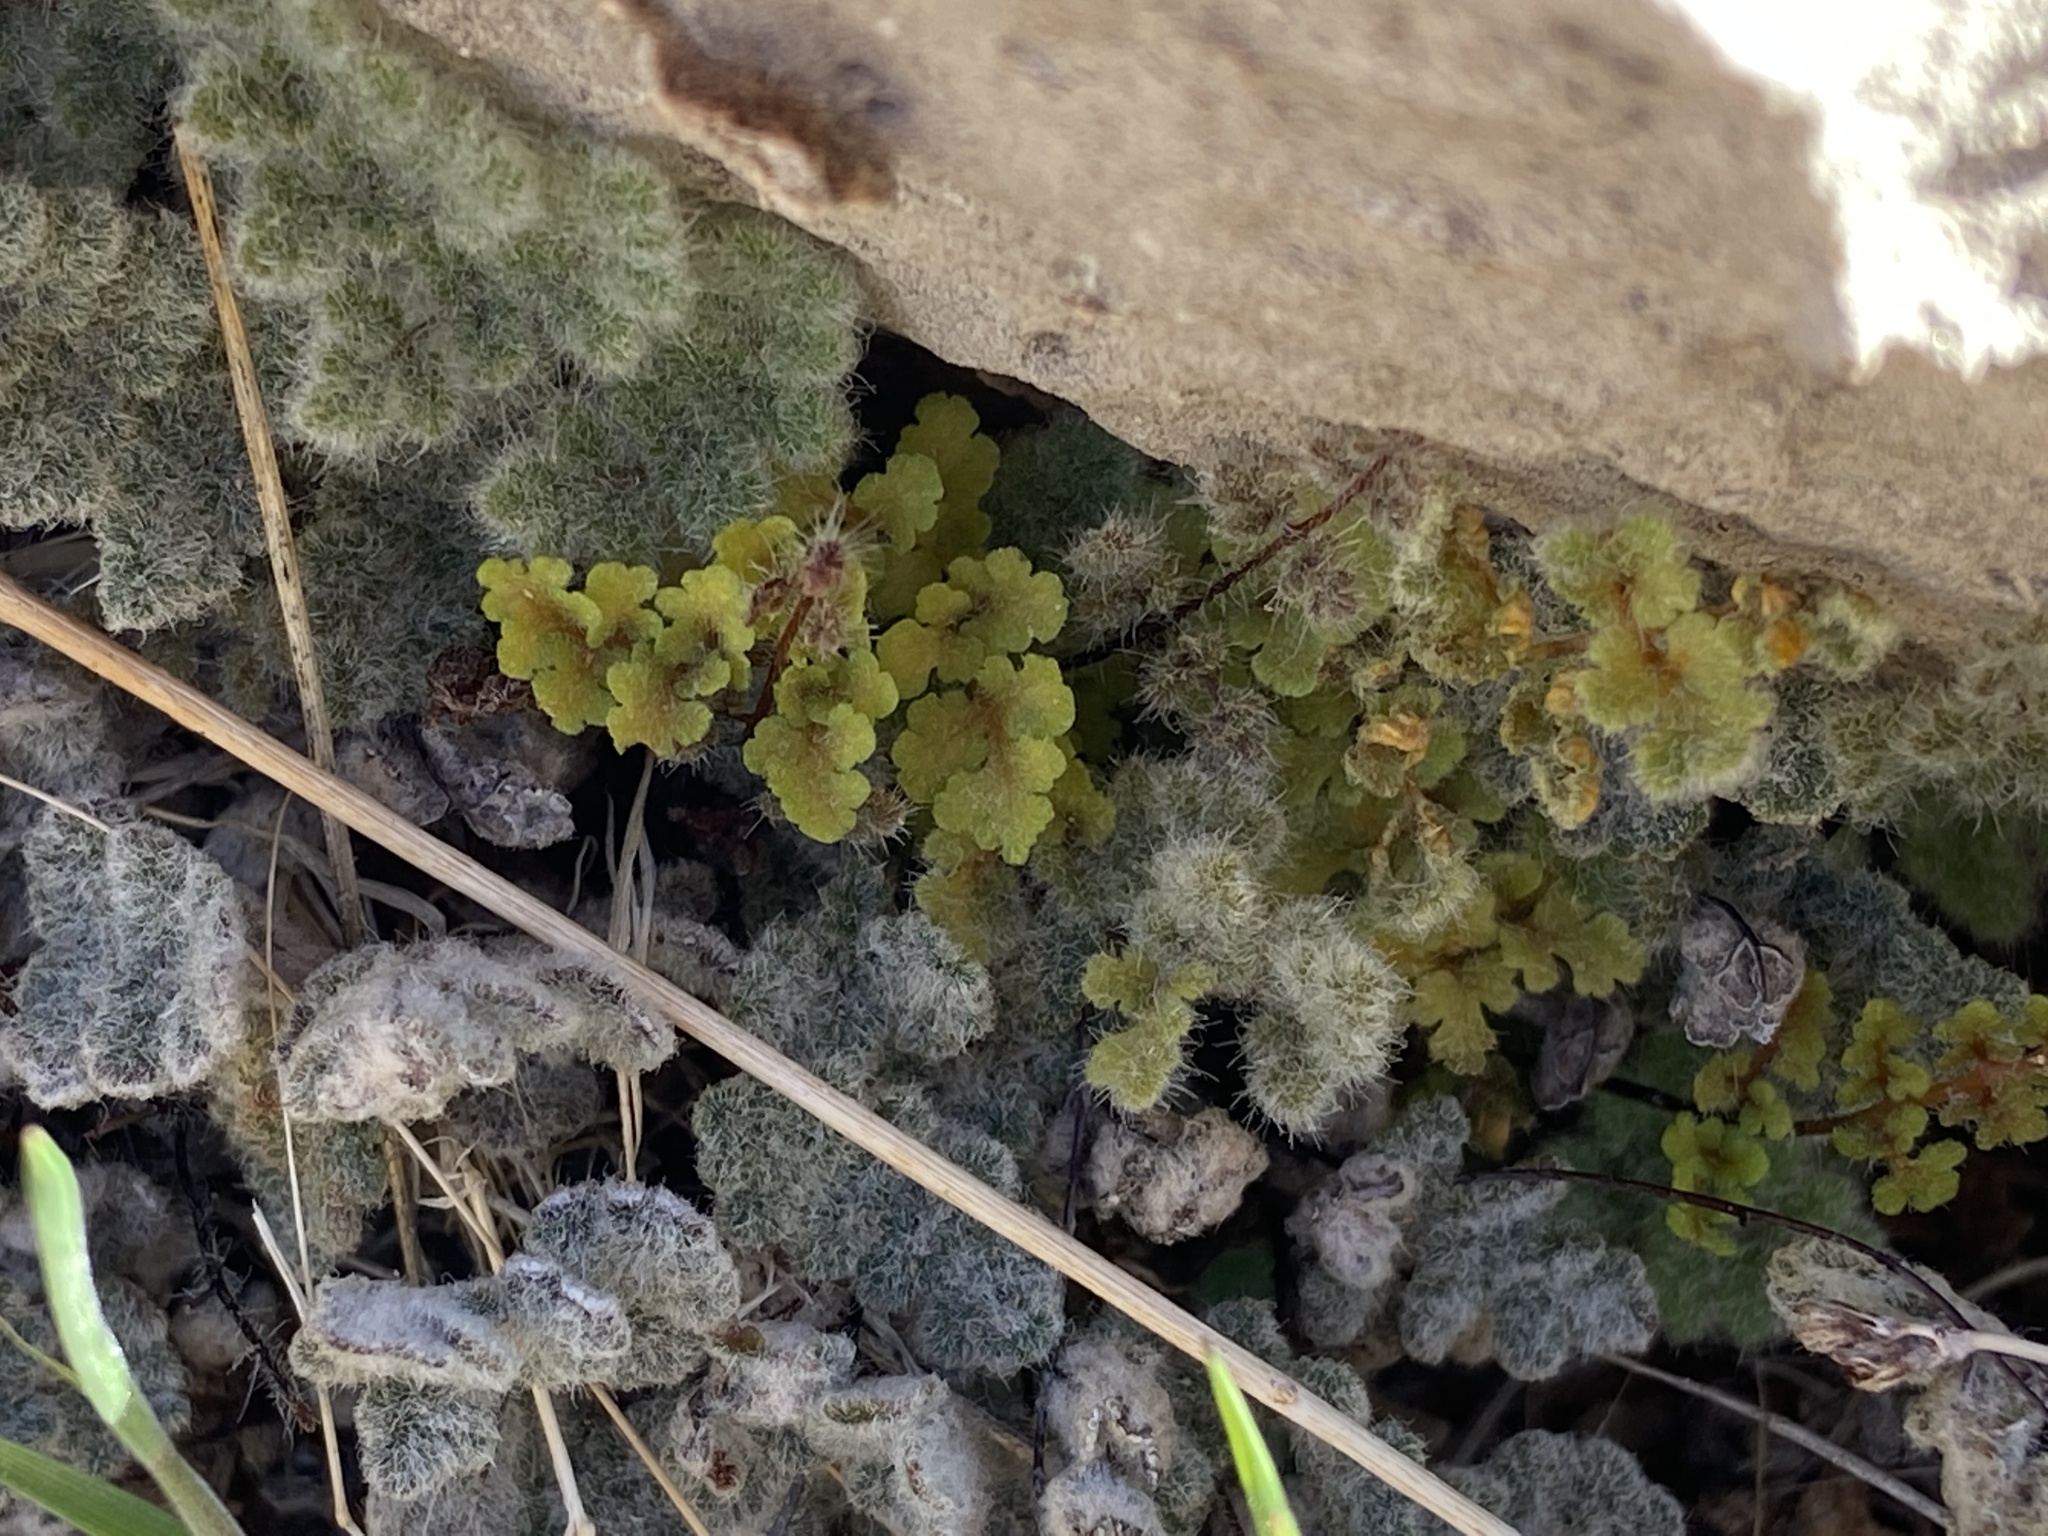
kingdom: Plantae
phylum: Tracheophyta
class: Polypodiopsida
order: Polypodiales
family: Pteridaceae
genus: Myriopteris
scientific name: Myriopteris parryi
